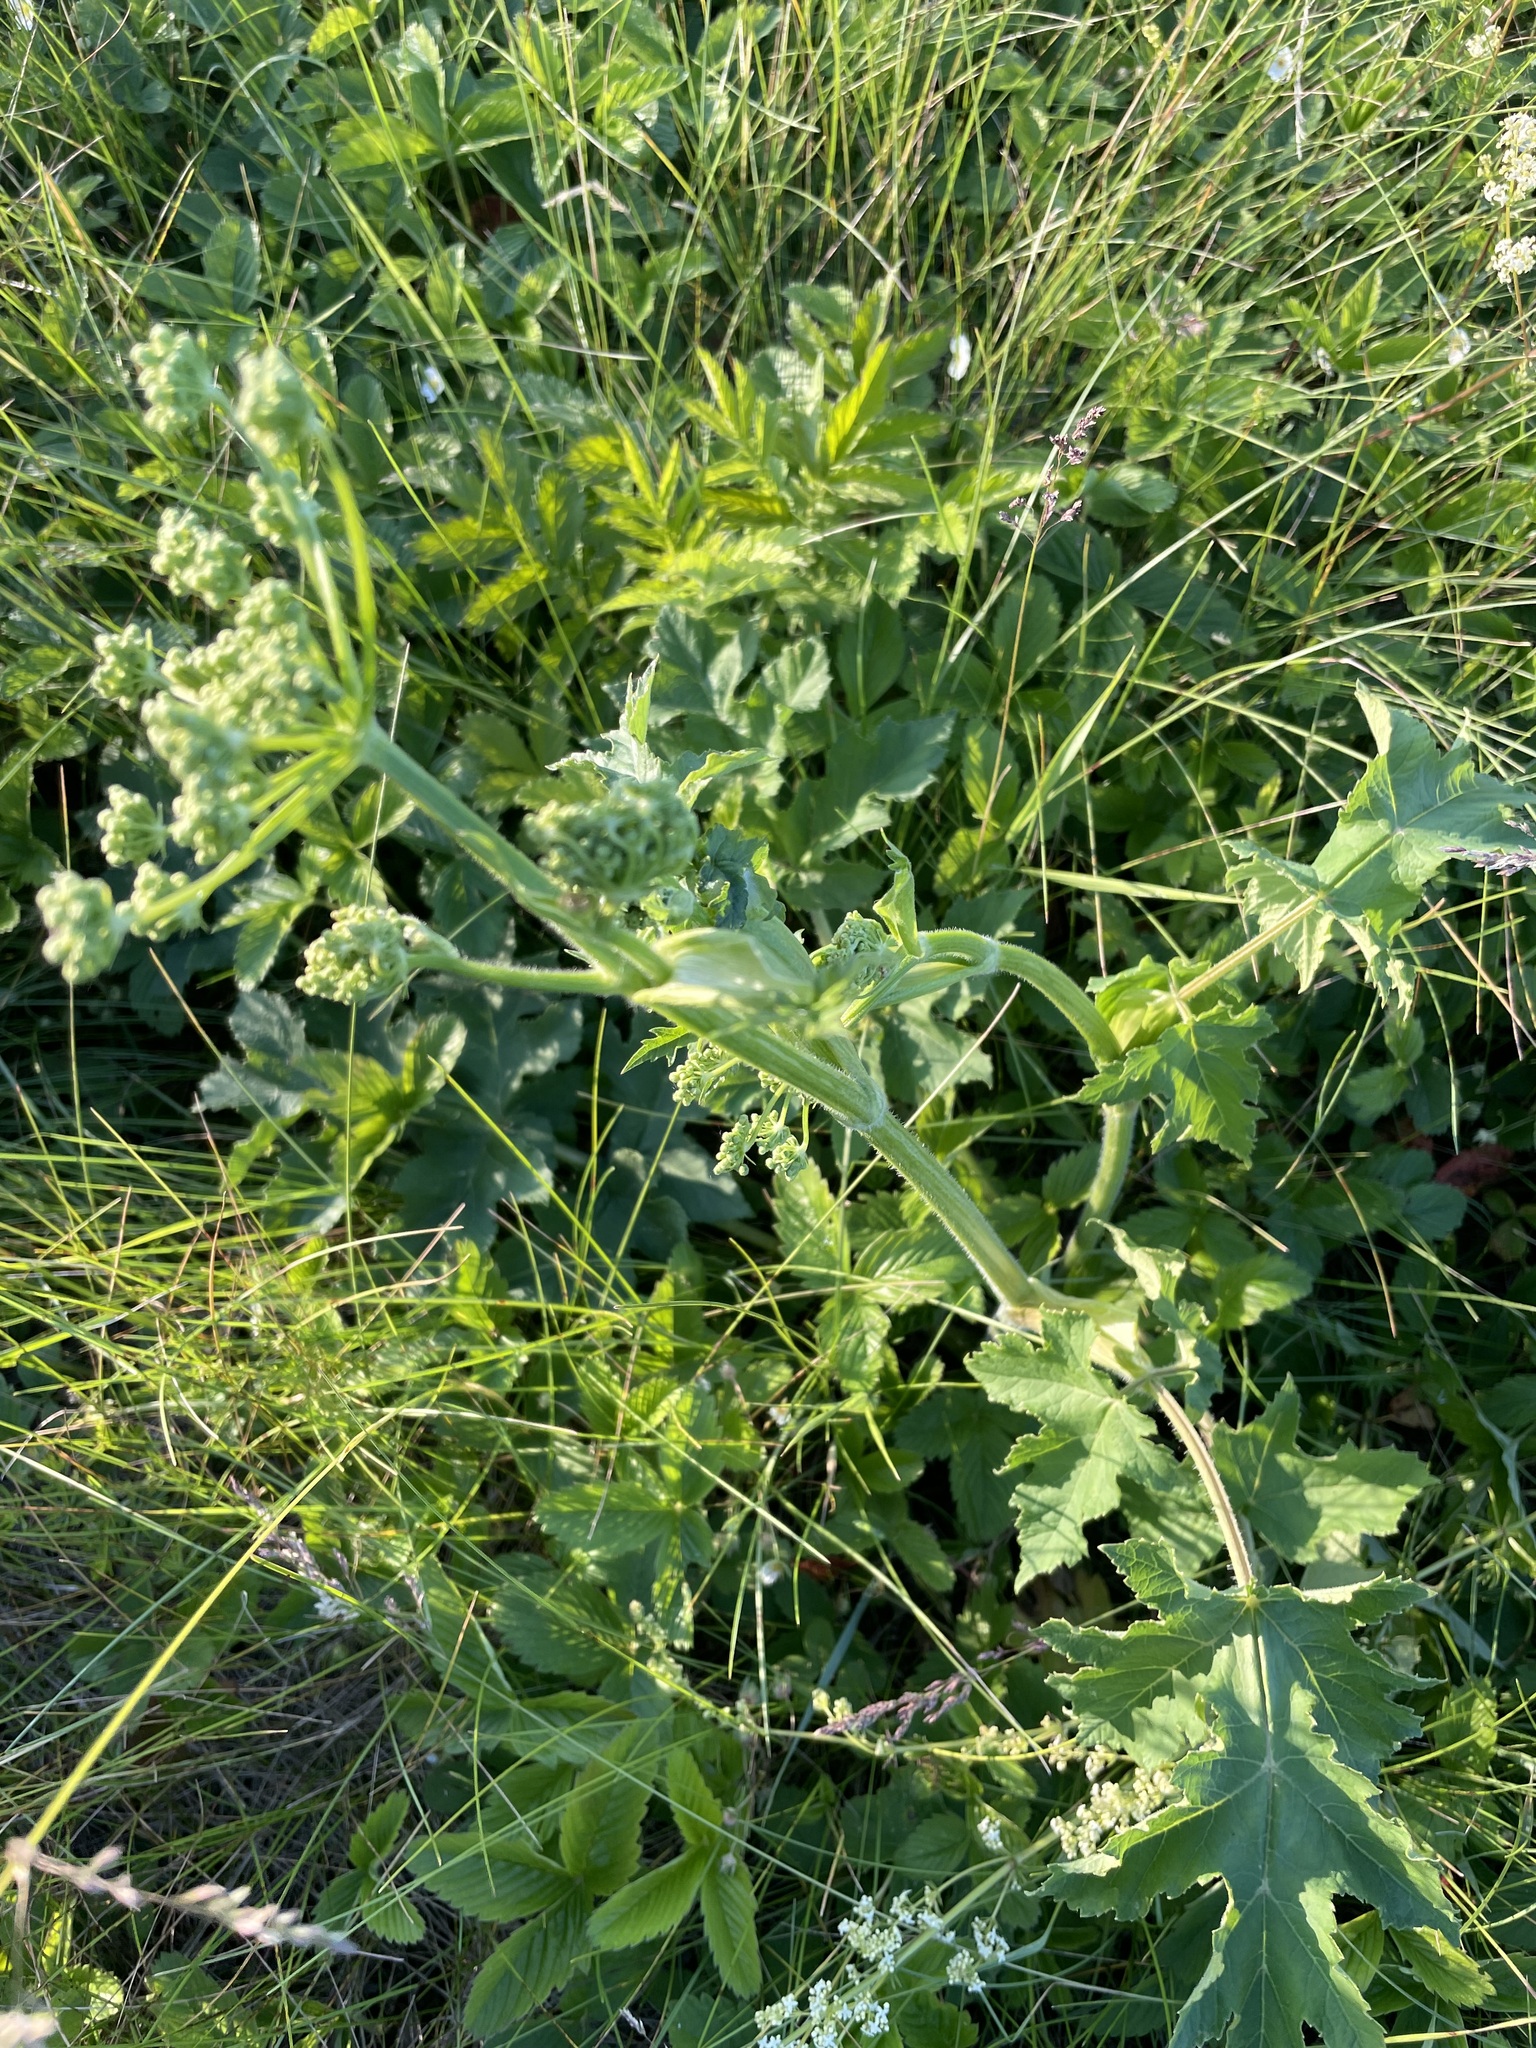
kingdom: Plantae
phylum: Tracheophyta
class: Magnoliopsida
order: Apiales
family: Apiaceae
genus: Heracleum
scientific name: Heracleum sphondylium
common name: Hogweed
